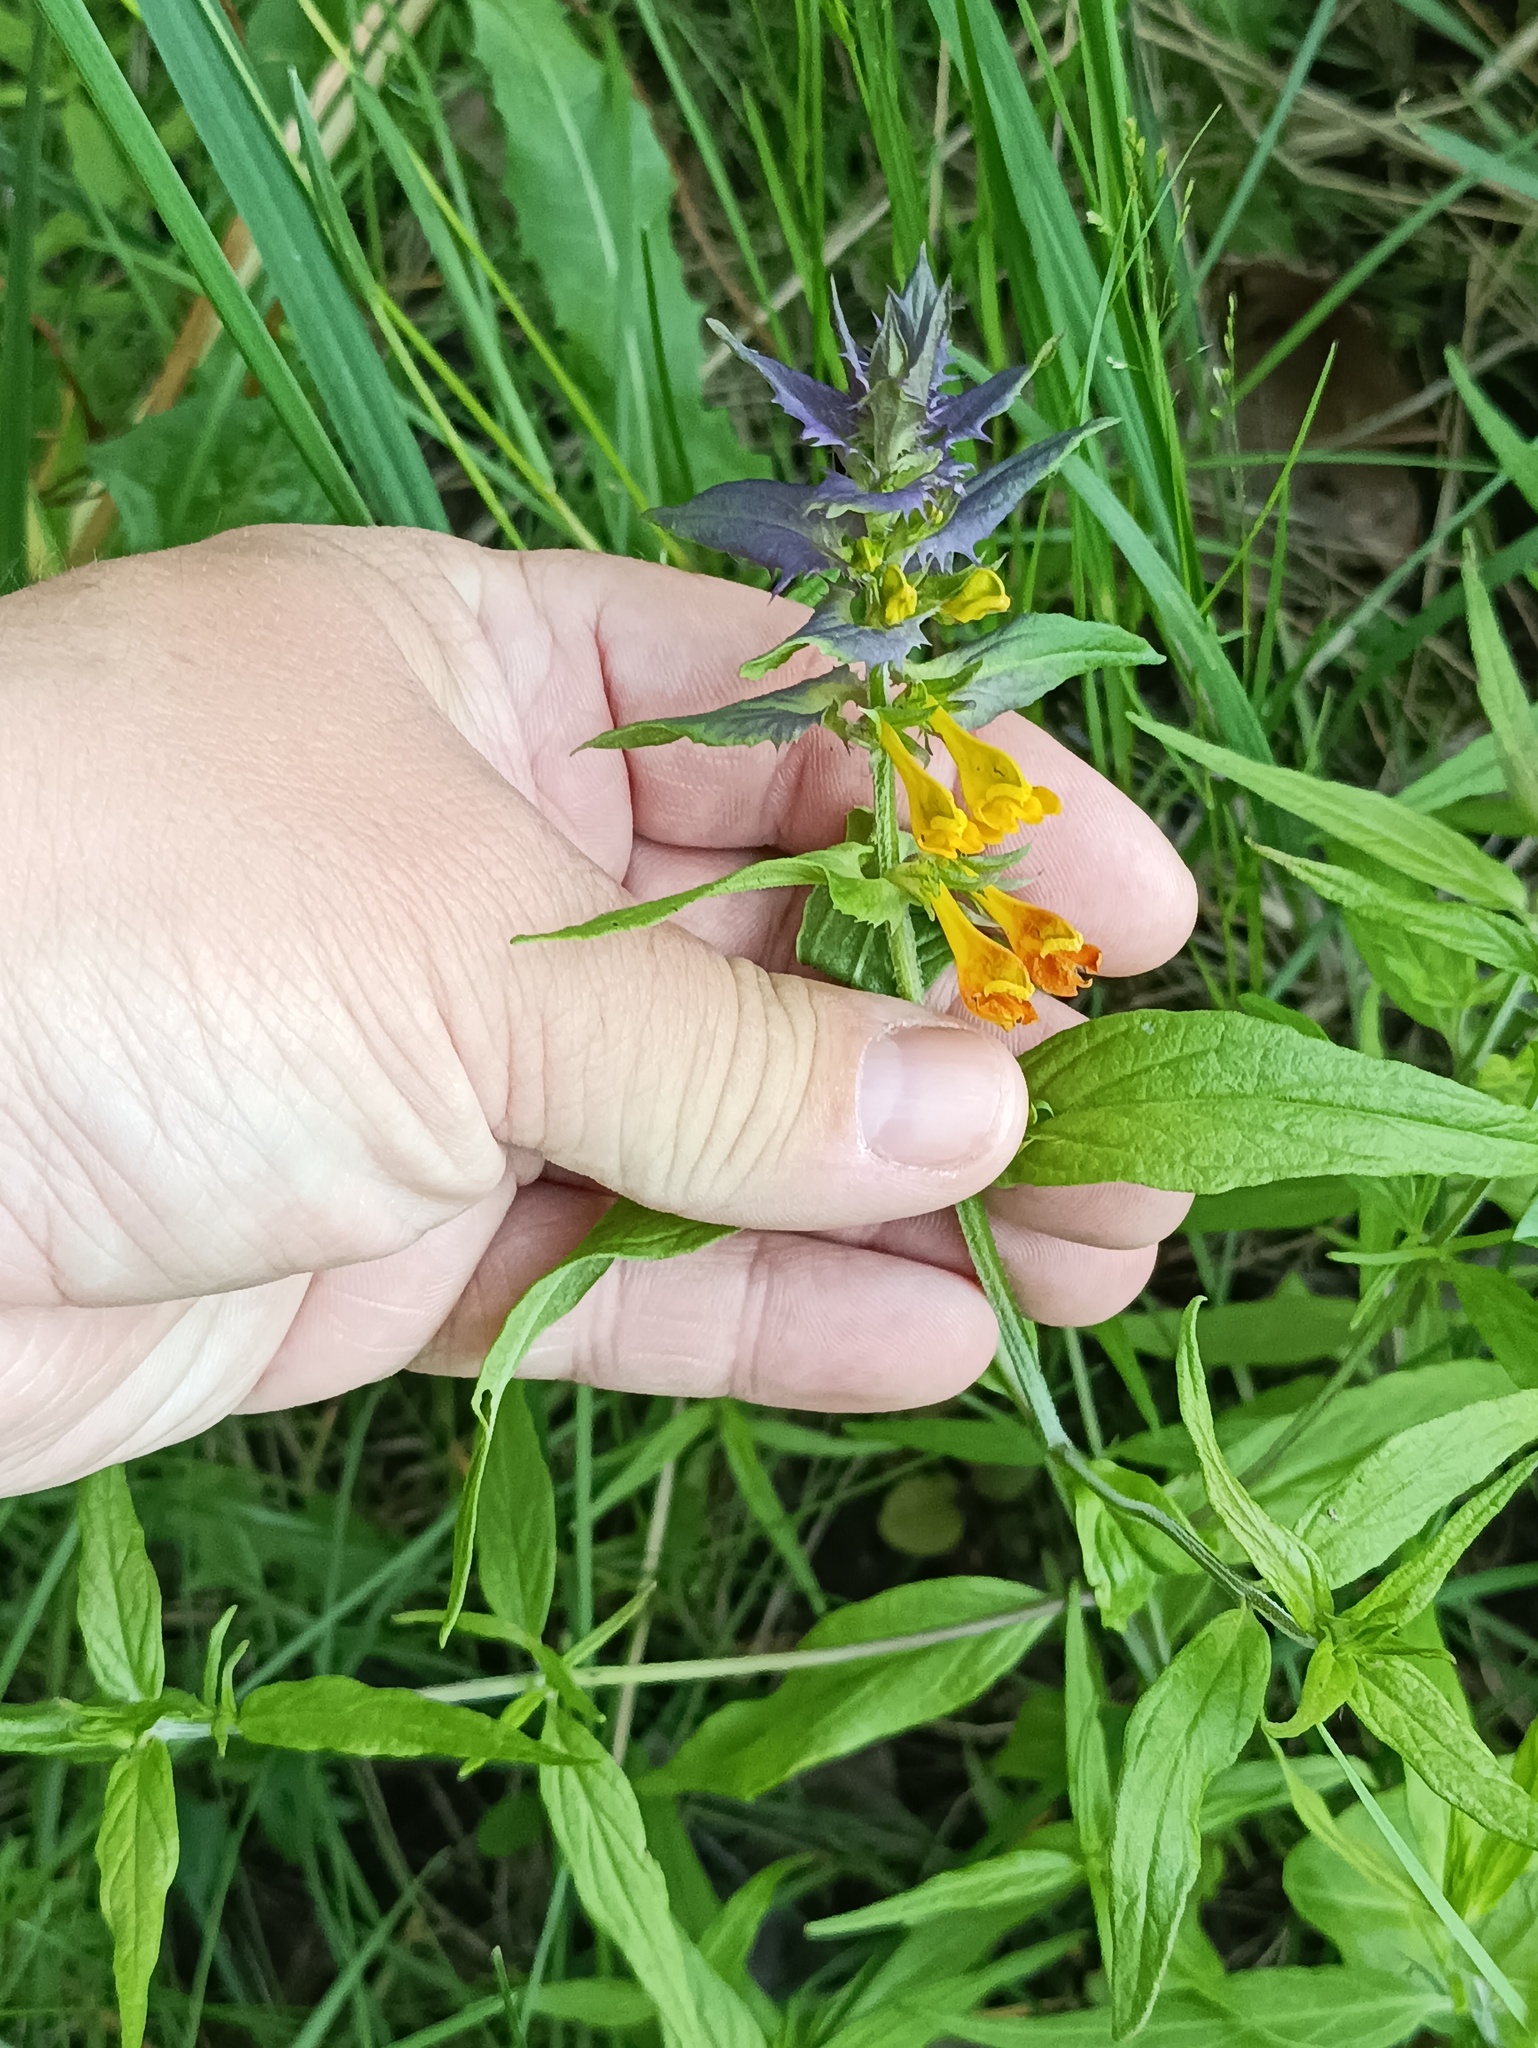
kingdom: Plantae
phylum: Tracheophyta
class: Magnoliopsida
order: Lamiales
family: Orobanchaceae
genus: Melampyrum
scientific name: Melampyrum nemorosum
